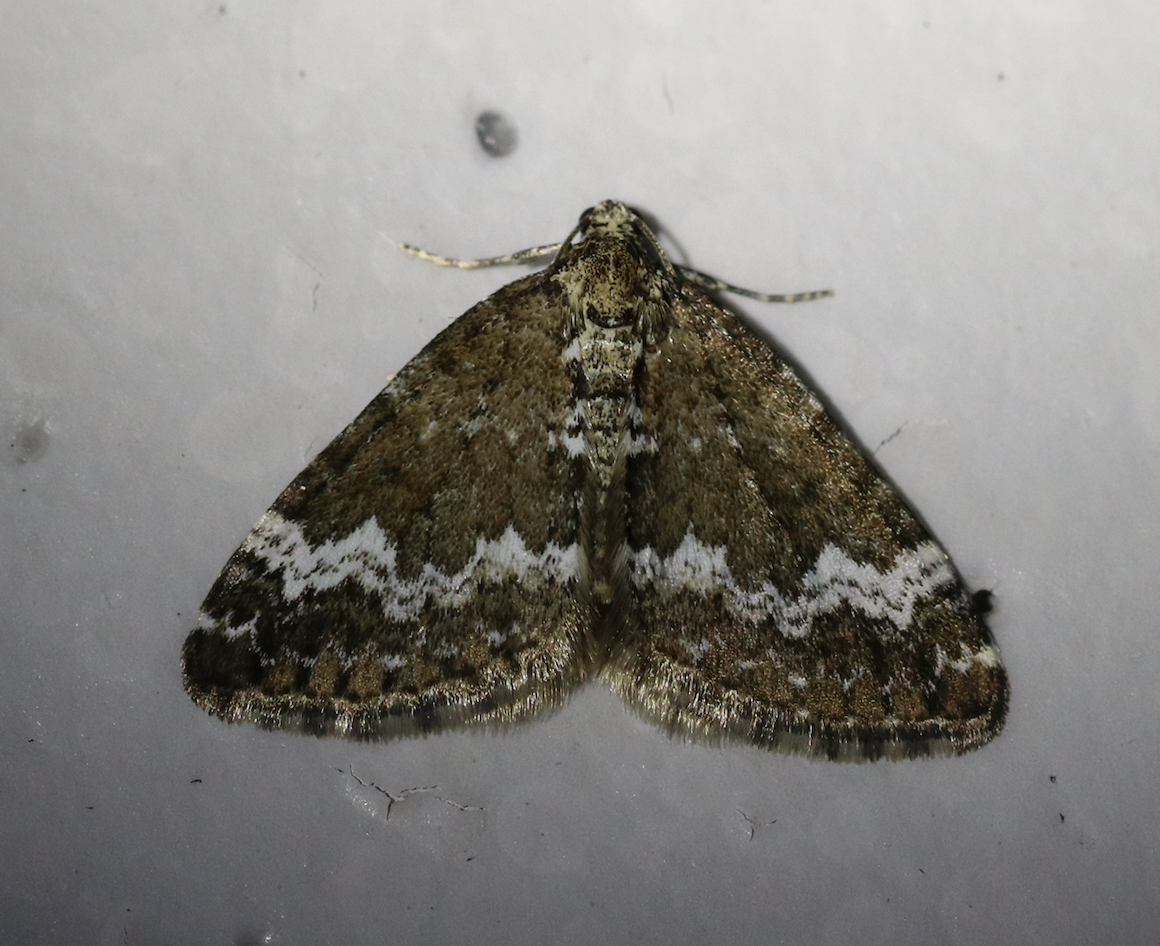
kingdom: Animalia
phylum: Arthropoda
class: Insecta
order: Lepidoptera
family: Geometridae
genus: Perizoma
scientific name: Perizoma alchemillata
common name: Small rivulet
